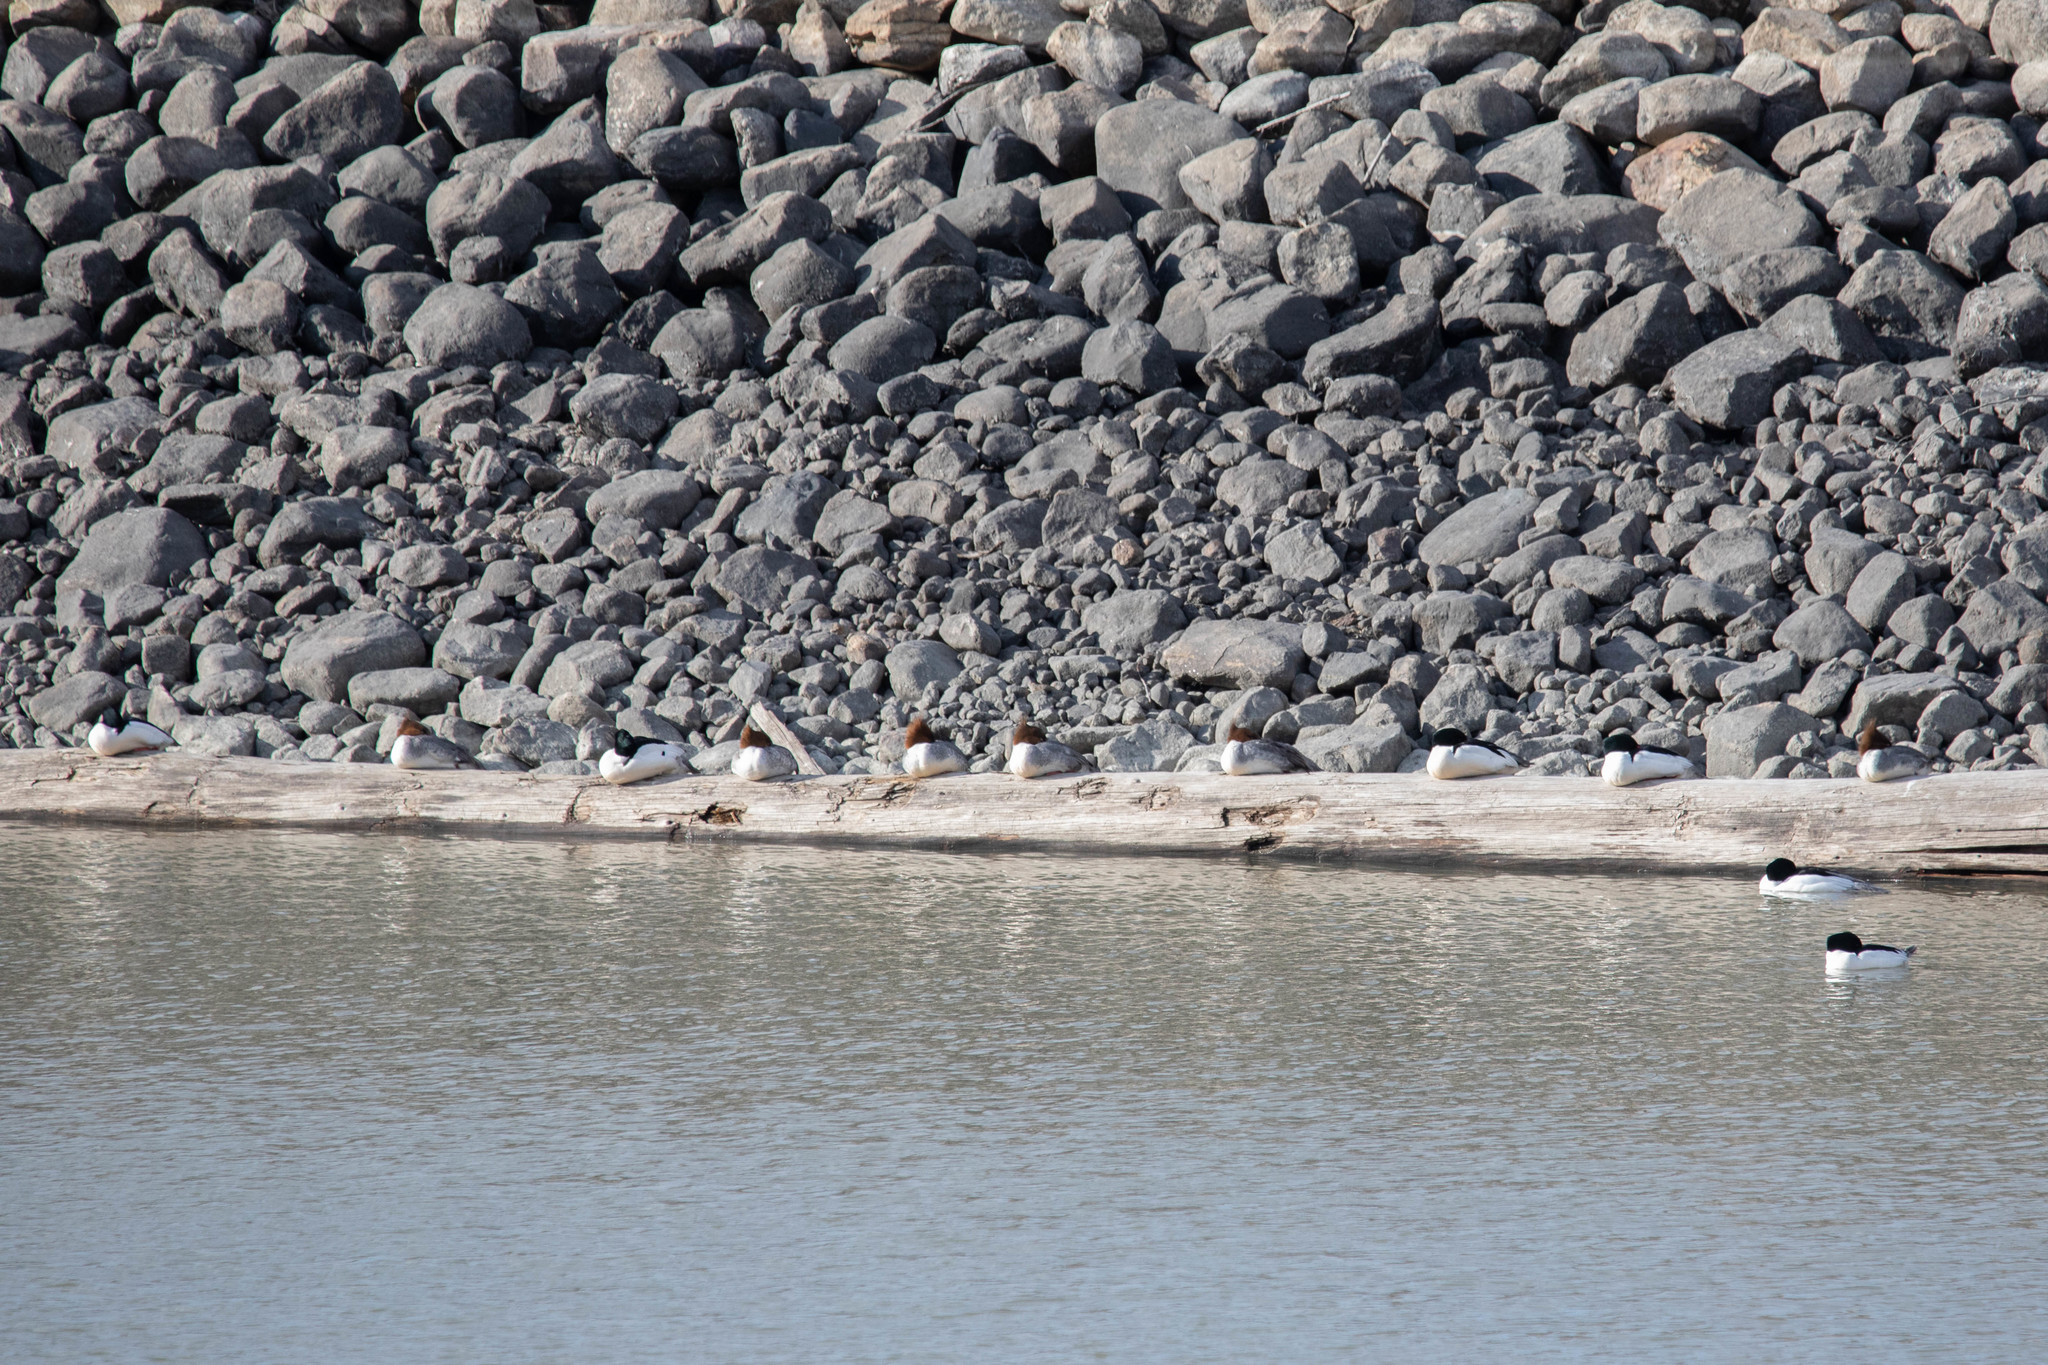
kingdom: Animalia
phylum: Chordata
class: Aves
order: Anseriformes
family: Anatidae
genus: Mergus
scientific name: Mergus merganser
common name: Common merganser
